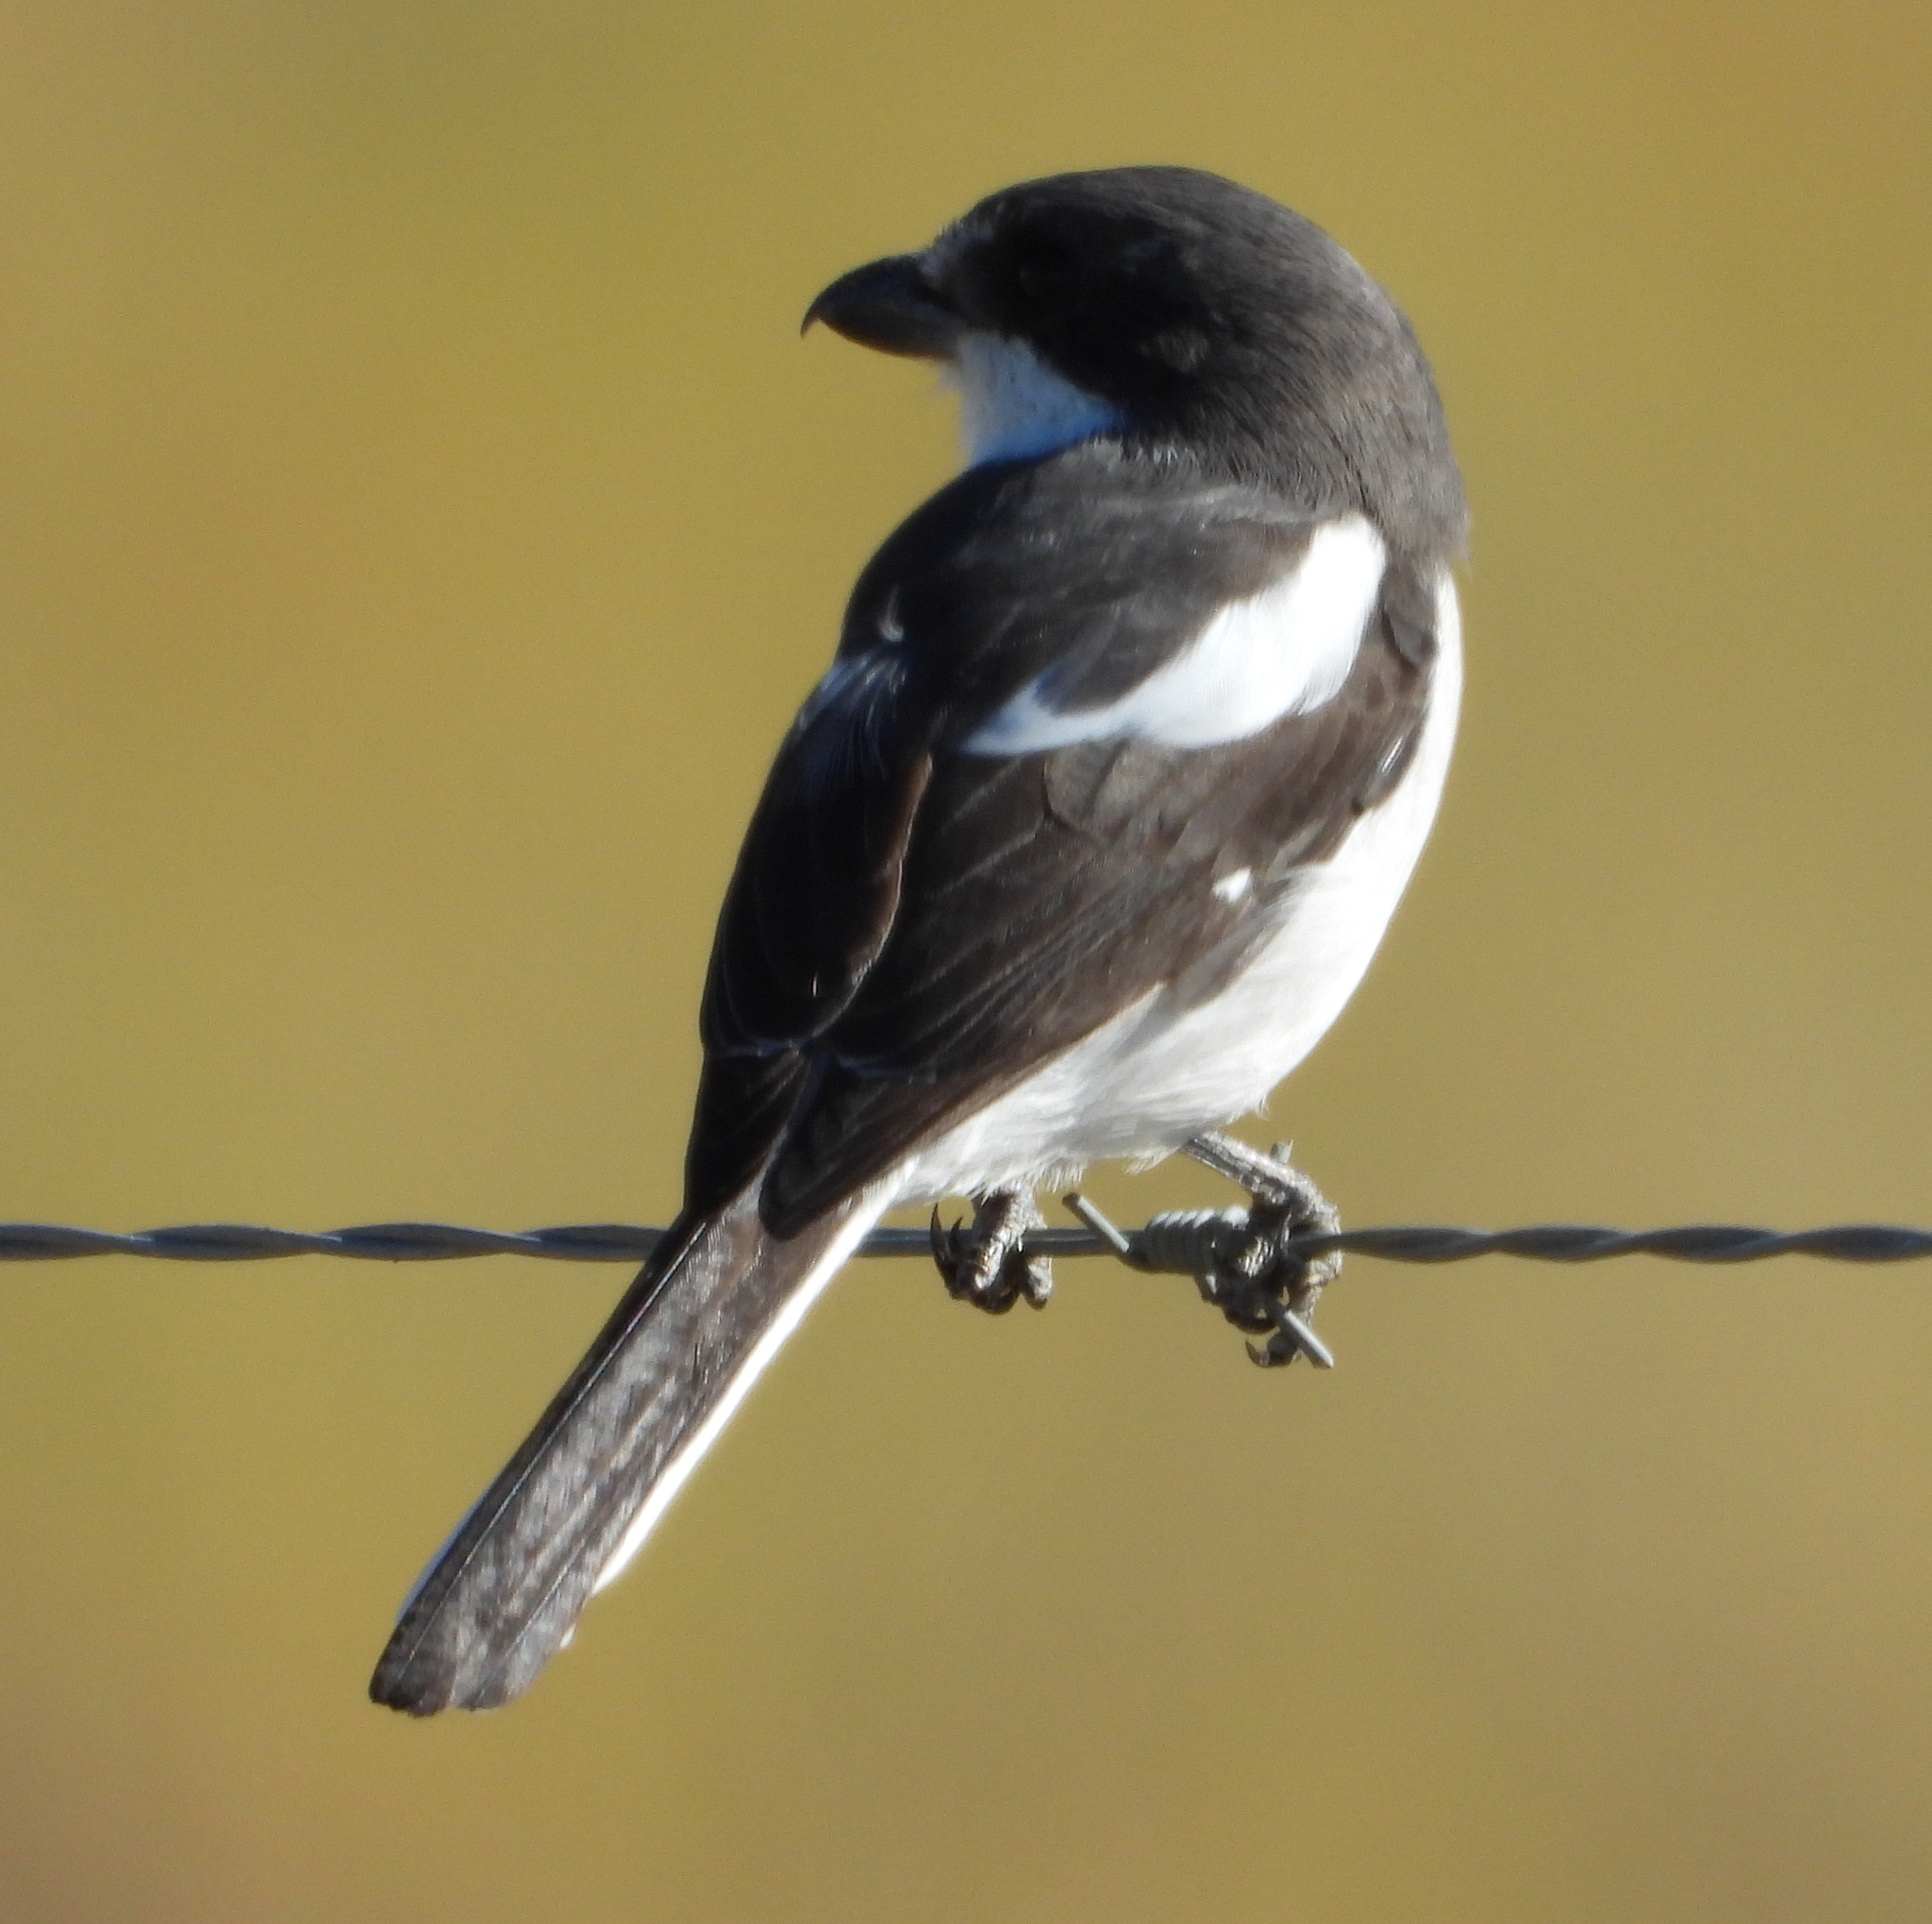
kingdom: Animalia
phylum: Chordata
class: Aves
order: Passeriformes
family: Laniidae
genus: Lanius
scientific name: Lanius collaris
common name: Southern fiscal
